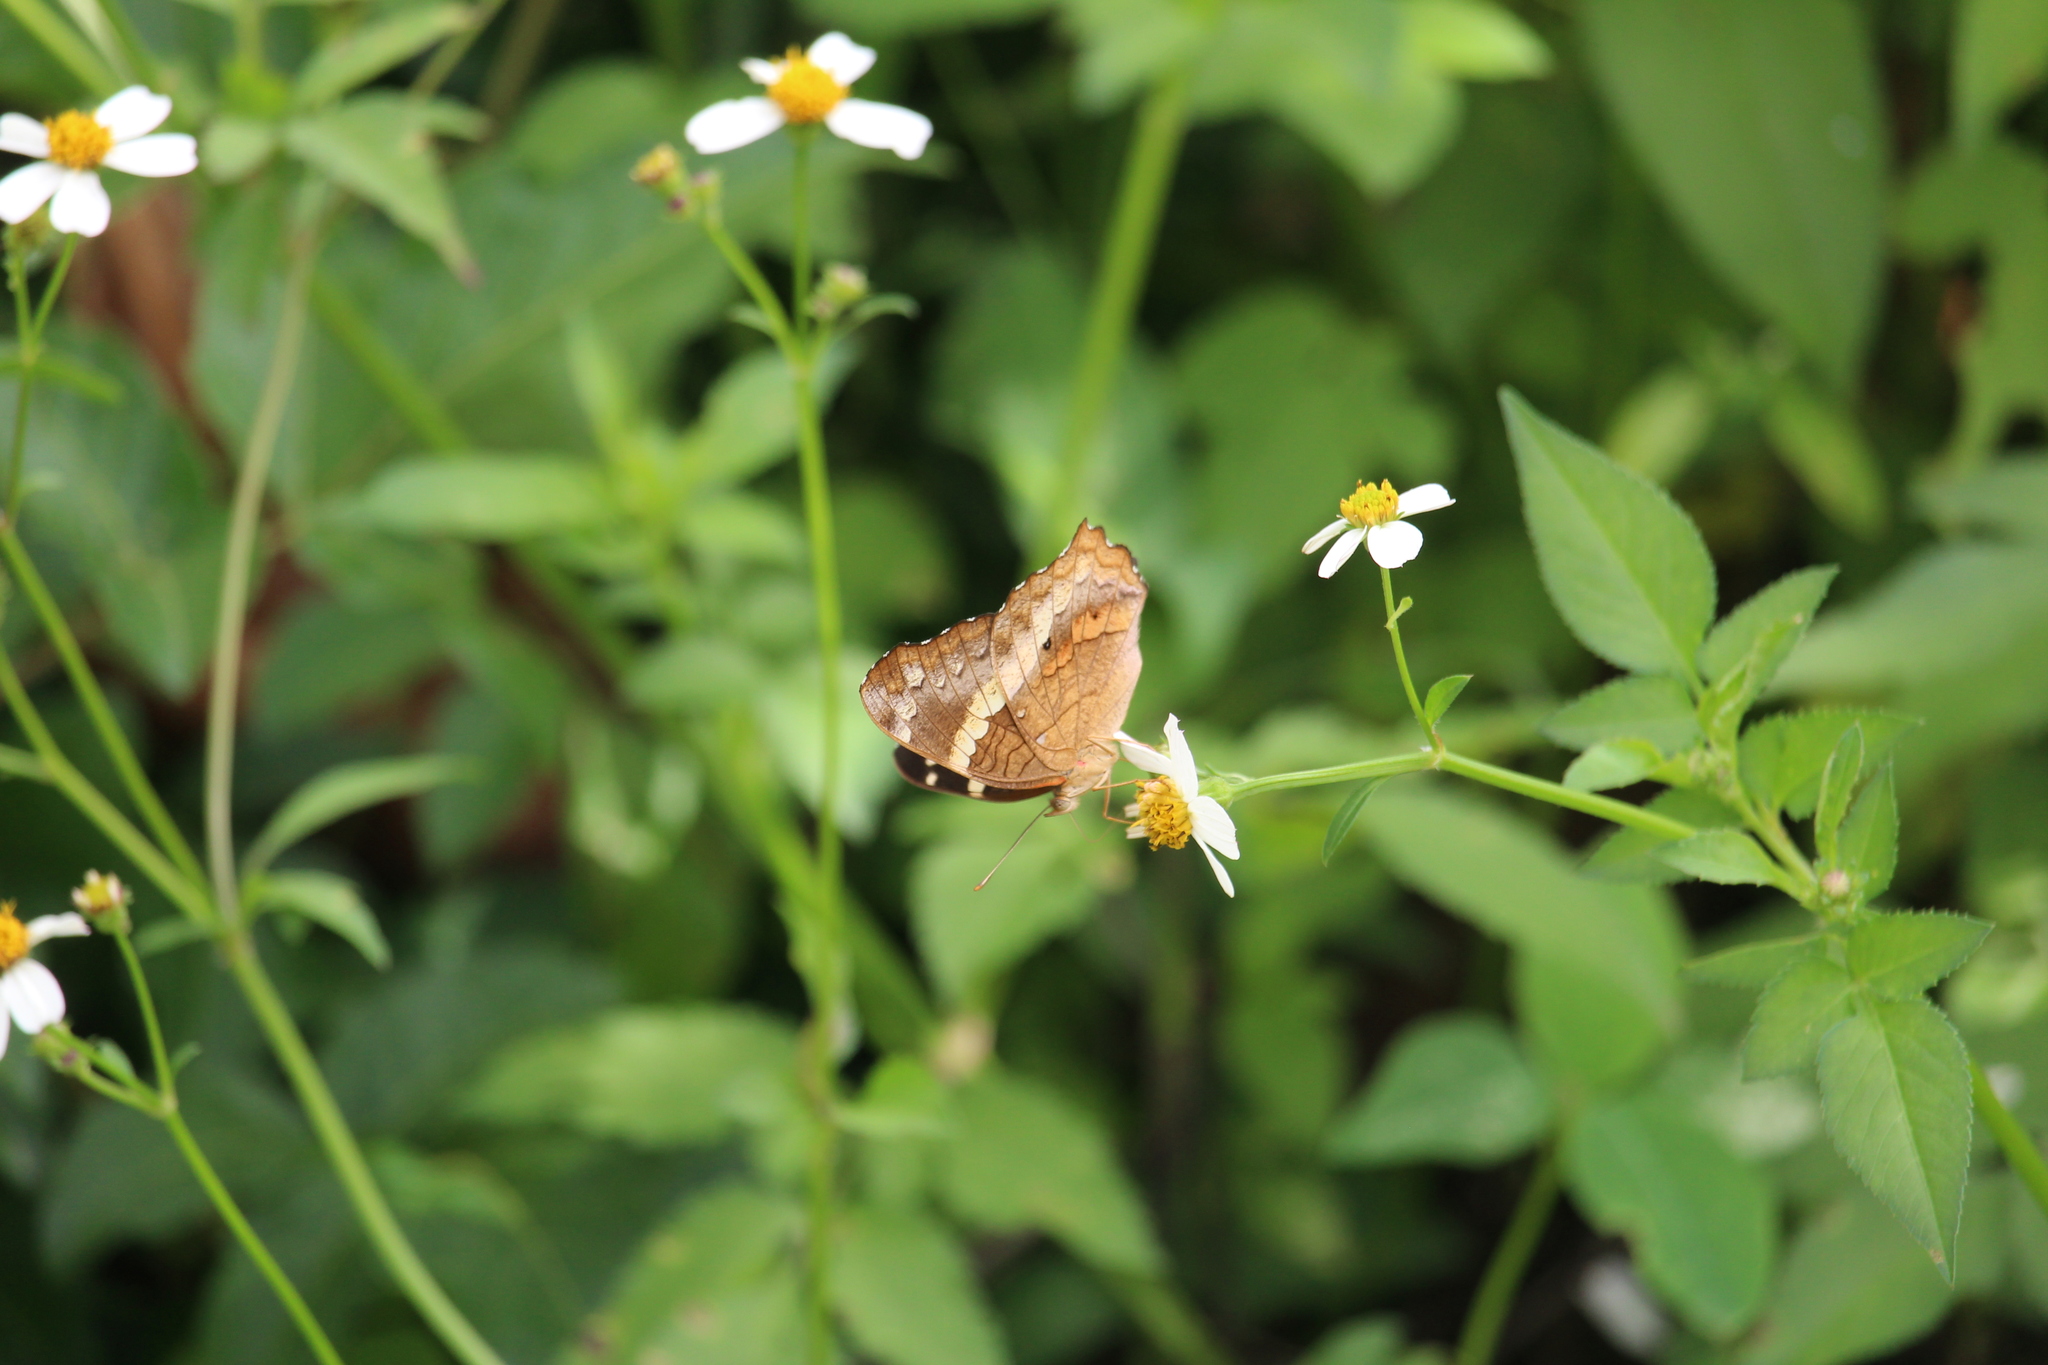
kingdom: Animalia
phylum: Arthropoda
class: Insecta
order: Lepidoptera
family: Nymphalidae
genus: Anartia
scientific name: Anartia fatima
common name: Banded peacock
